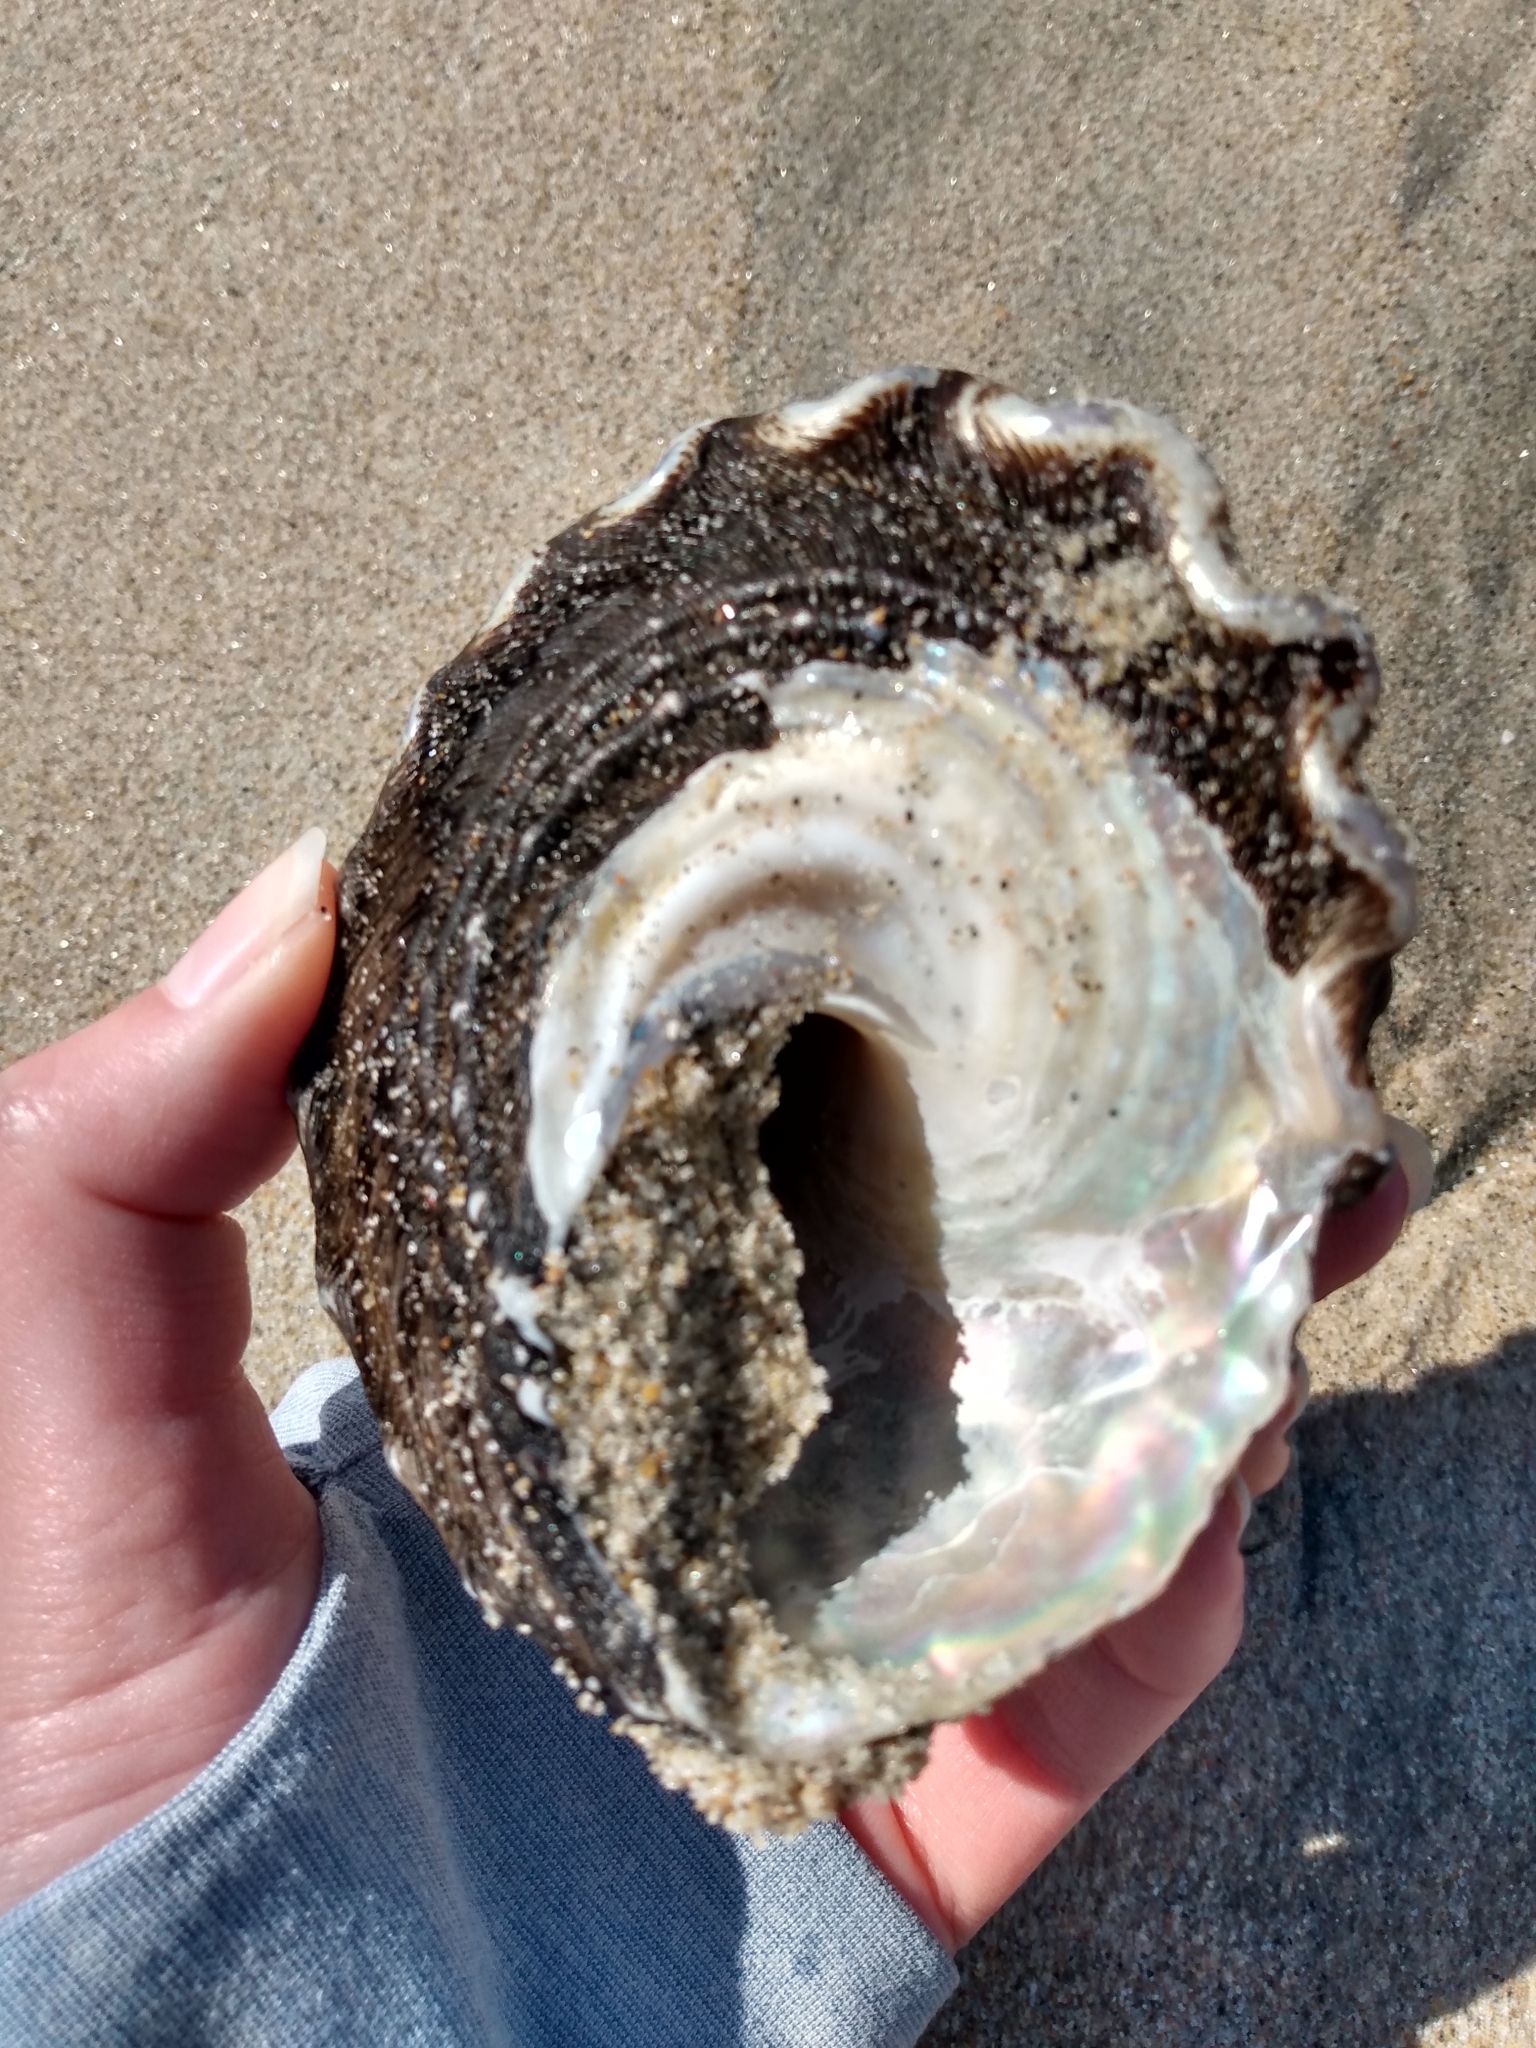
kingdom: Animalia
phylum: Mollusca
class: Gastropoda
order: Trochida
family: Turbinidae
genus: Megastraea
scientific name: Megastraea undosa
